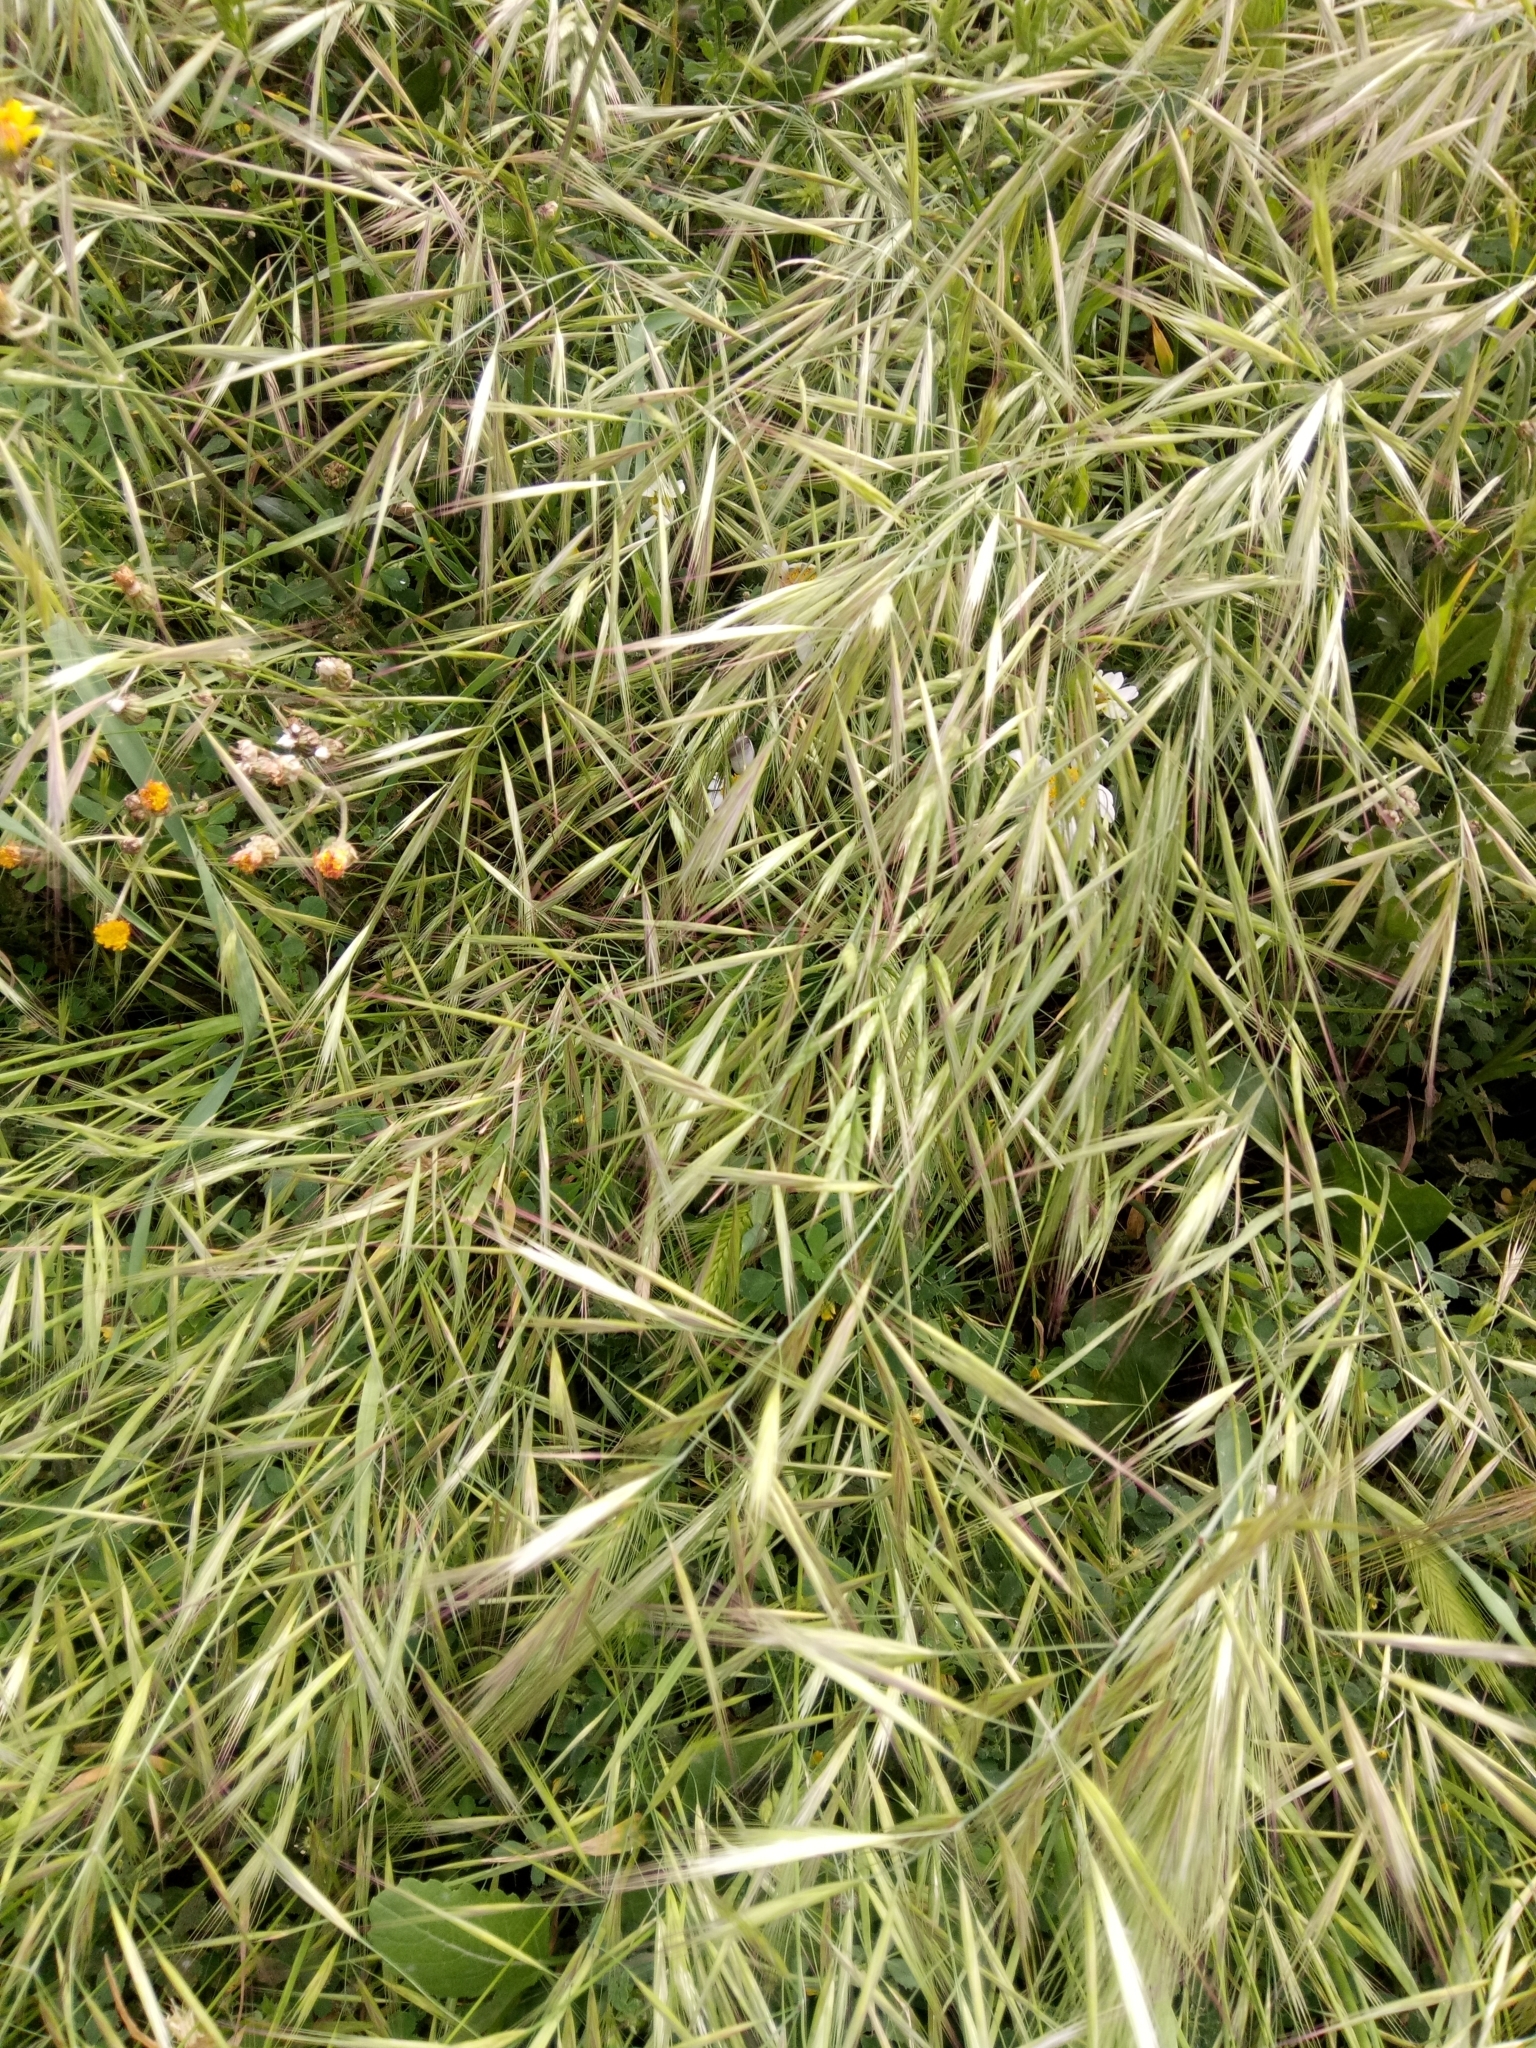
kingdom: Plantae
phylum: Tracheophyta
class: Liliopsida
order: Poales
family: Poaceae
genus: Avena
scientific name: Avena fatua
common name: Wild oat
